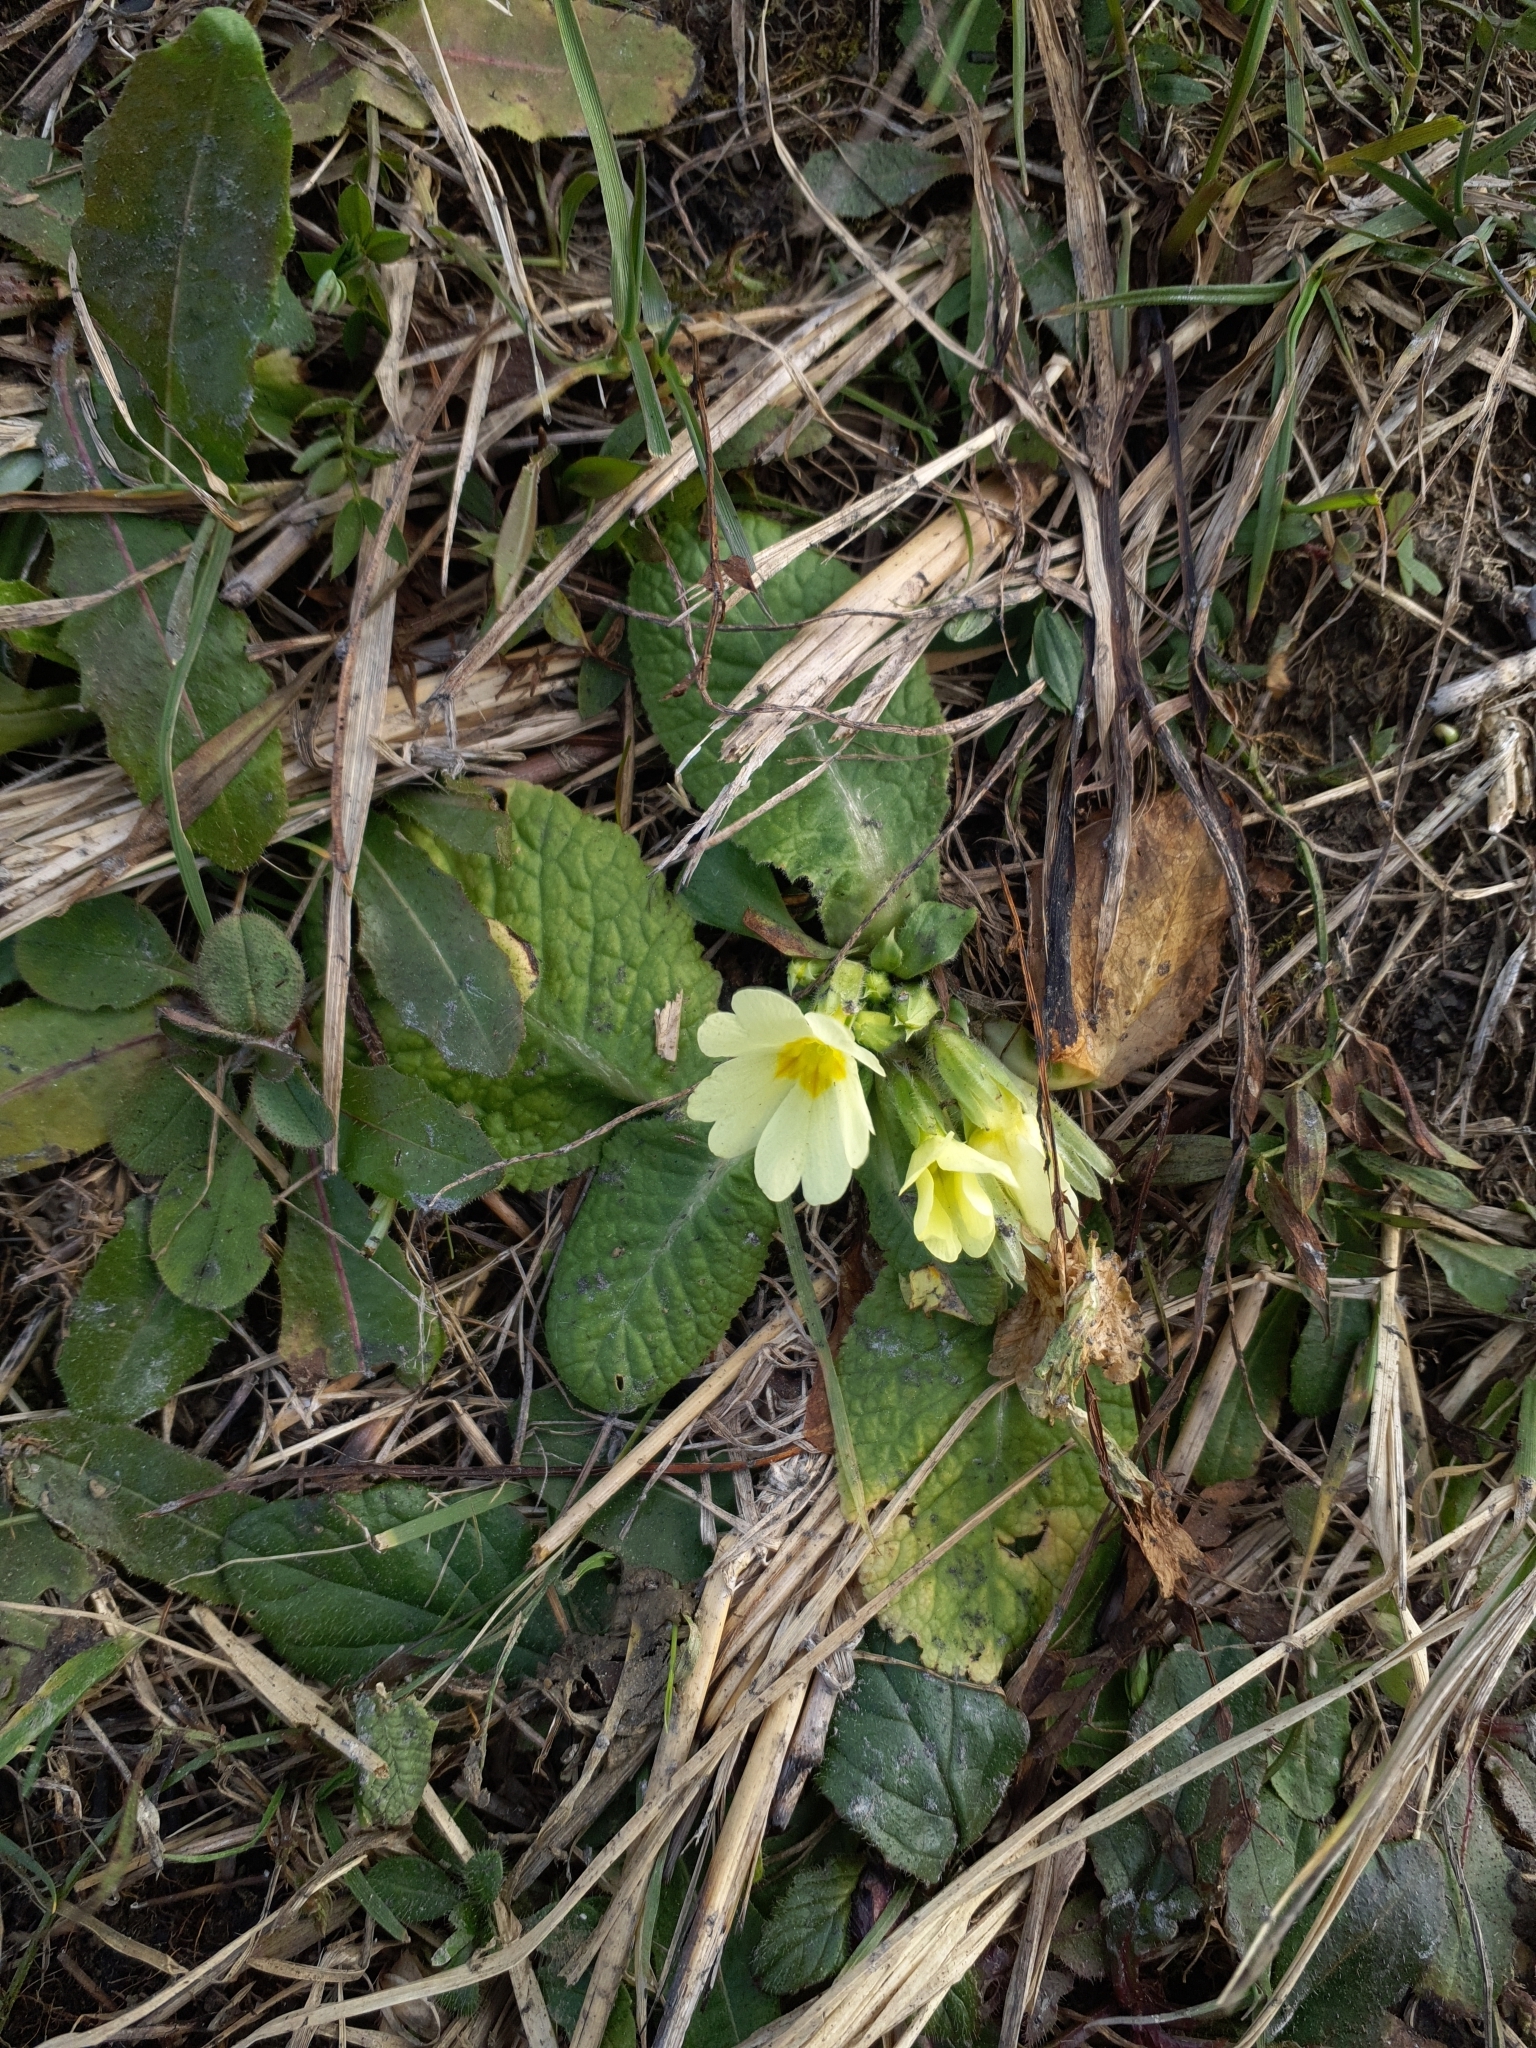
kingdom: Plantae
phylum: Tracheophyta
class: Magnoliopsida
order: Ericales
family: Primulaceae
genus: Primula
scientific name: Primula vulgaris
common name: Primrose
